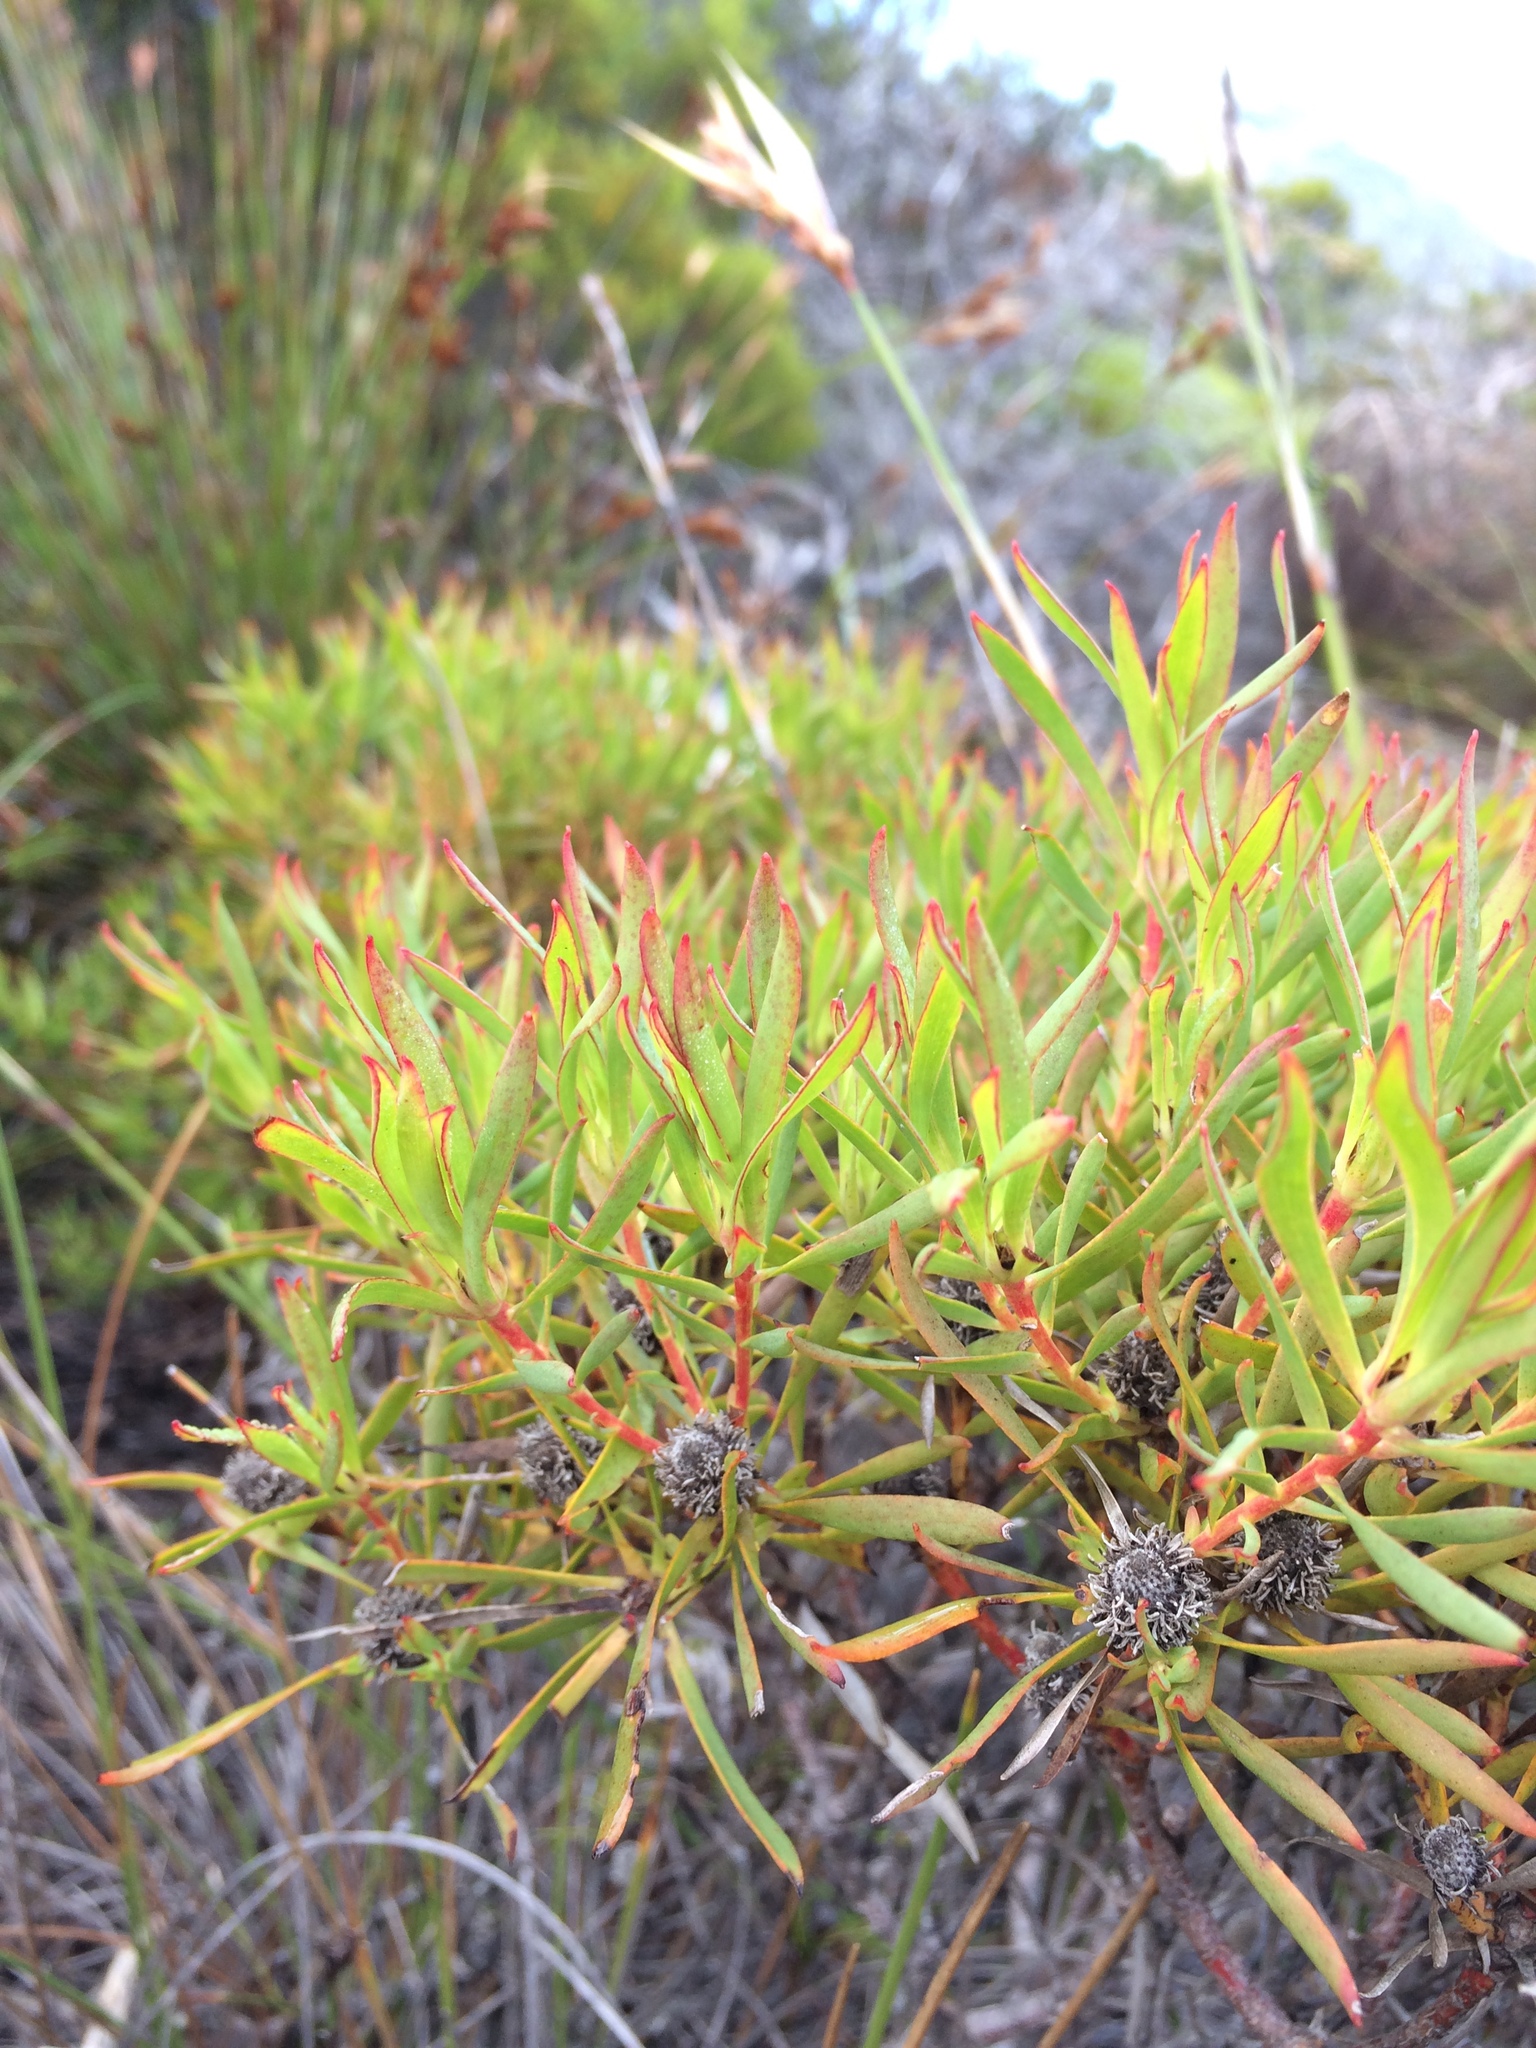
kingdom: Plantae
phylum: Tracheophyta
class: Magnoliopsida
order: Proteales
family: Proteaceae
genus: Leucadendron
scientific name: Leucadendron salignum
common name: Common sunshine conebush
